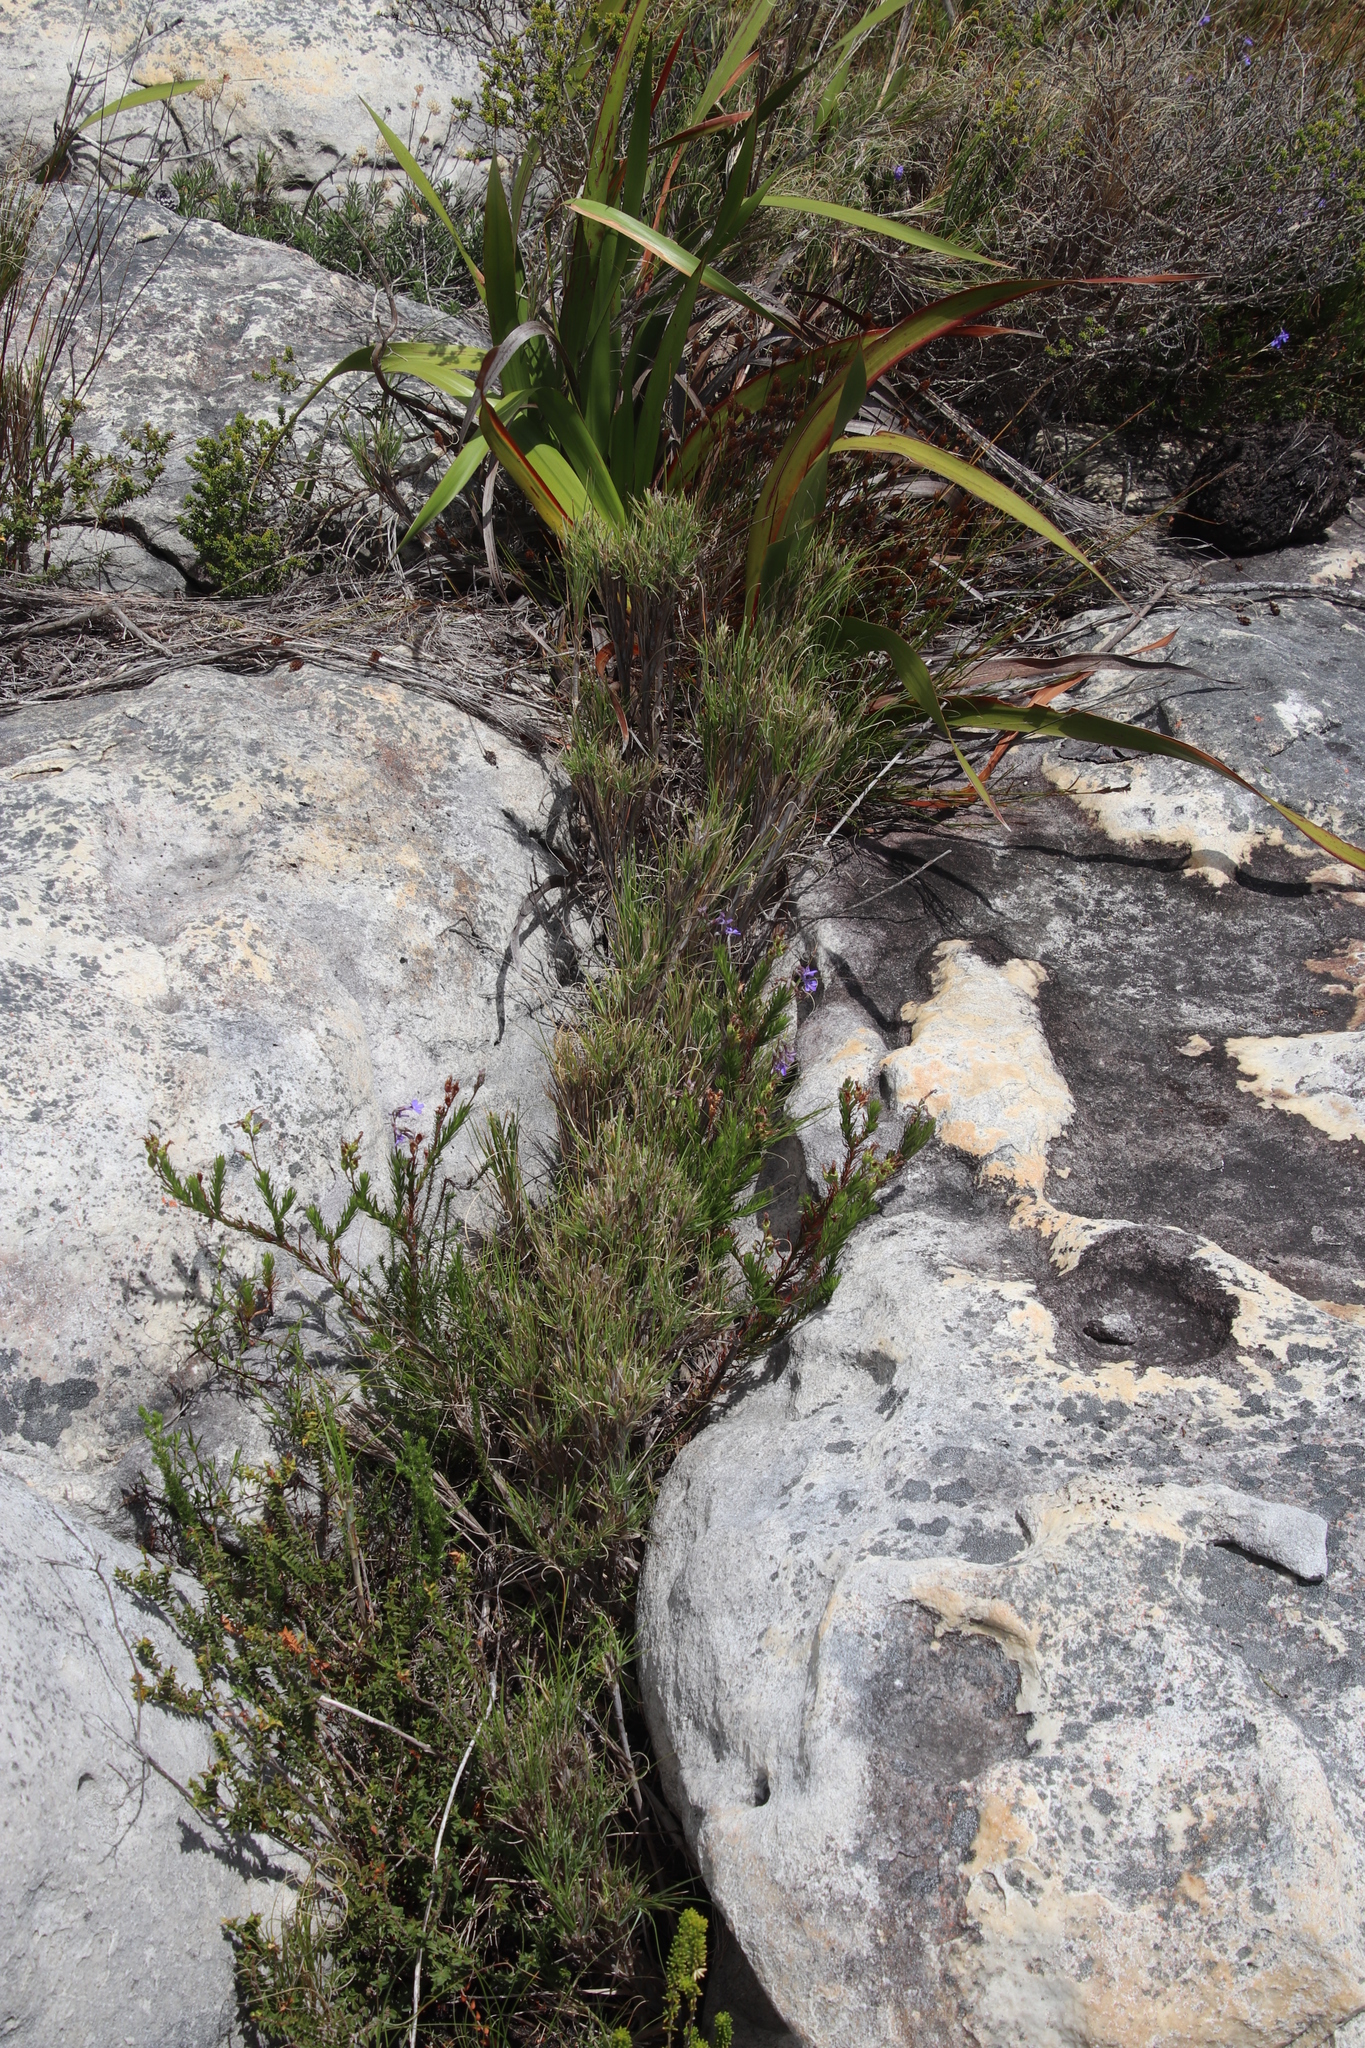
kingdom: Plantae
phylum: Tracheophyta
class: Liliopsida
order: Poales
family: Poaceae
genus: Pseudopentameris
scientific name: Pseudopentameris macrantha
